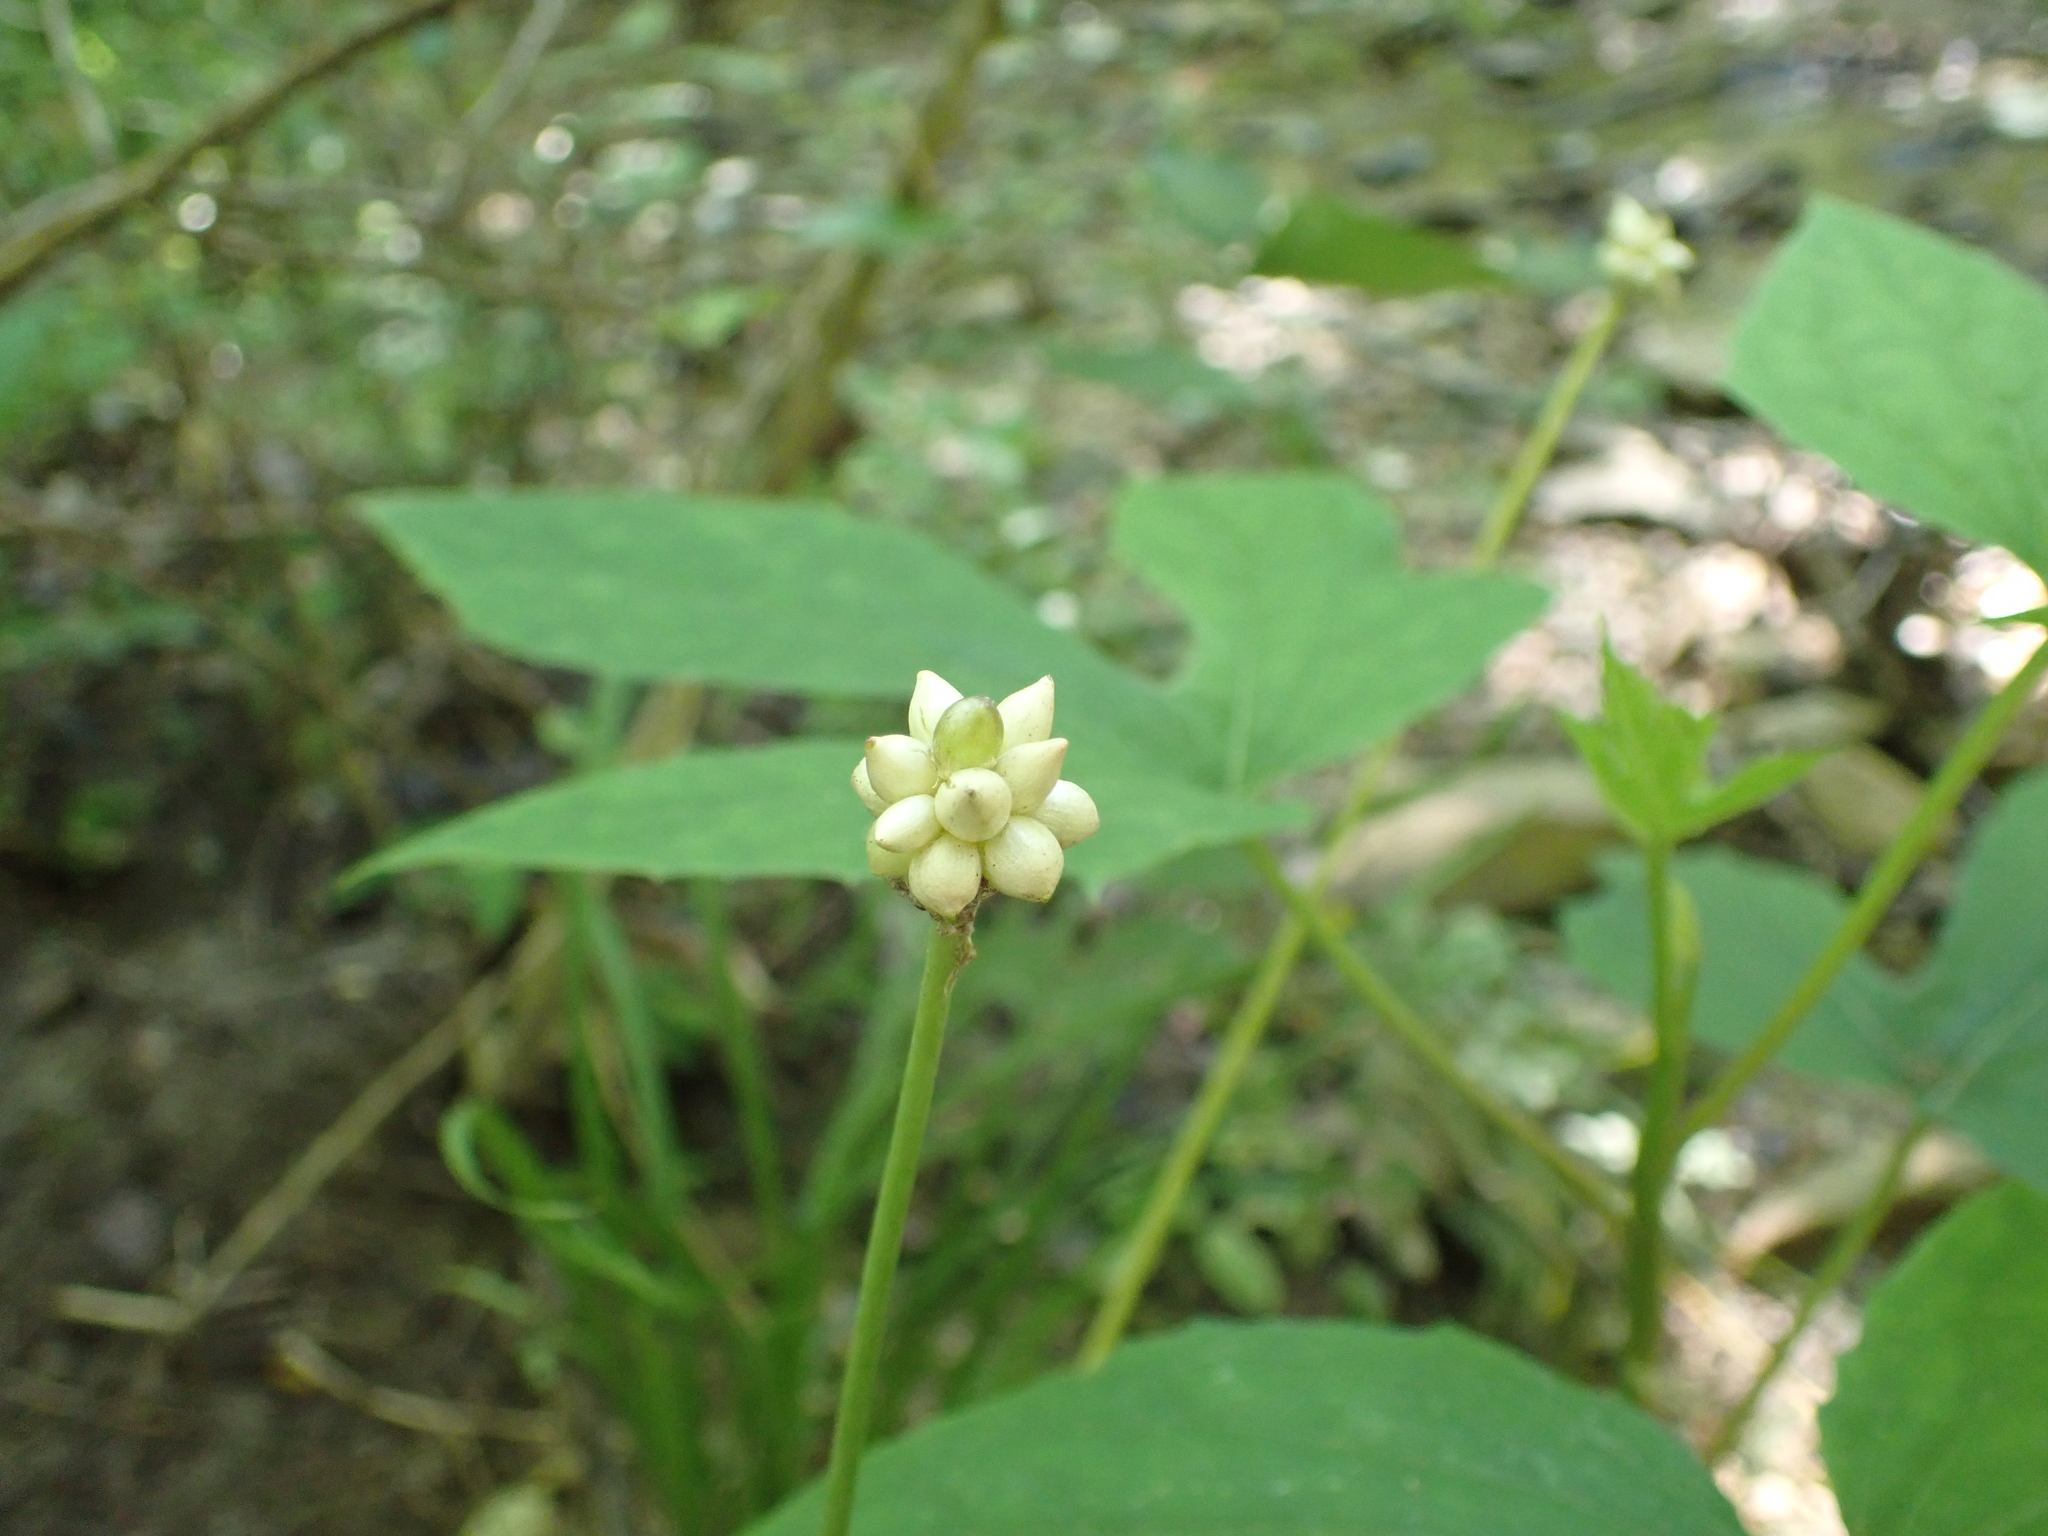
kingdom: Plantae
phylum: Tracheophyta
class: Liliopsida
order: Asparagales
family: Amaryllidaceae
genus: Allium
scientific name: Allium canadense
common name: Meadow garlic
